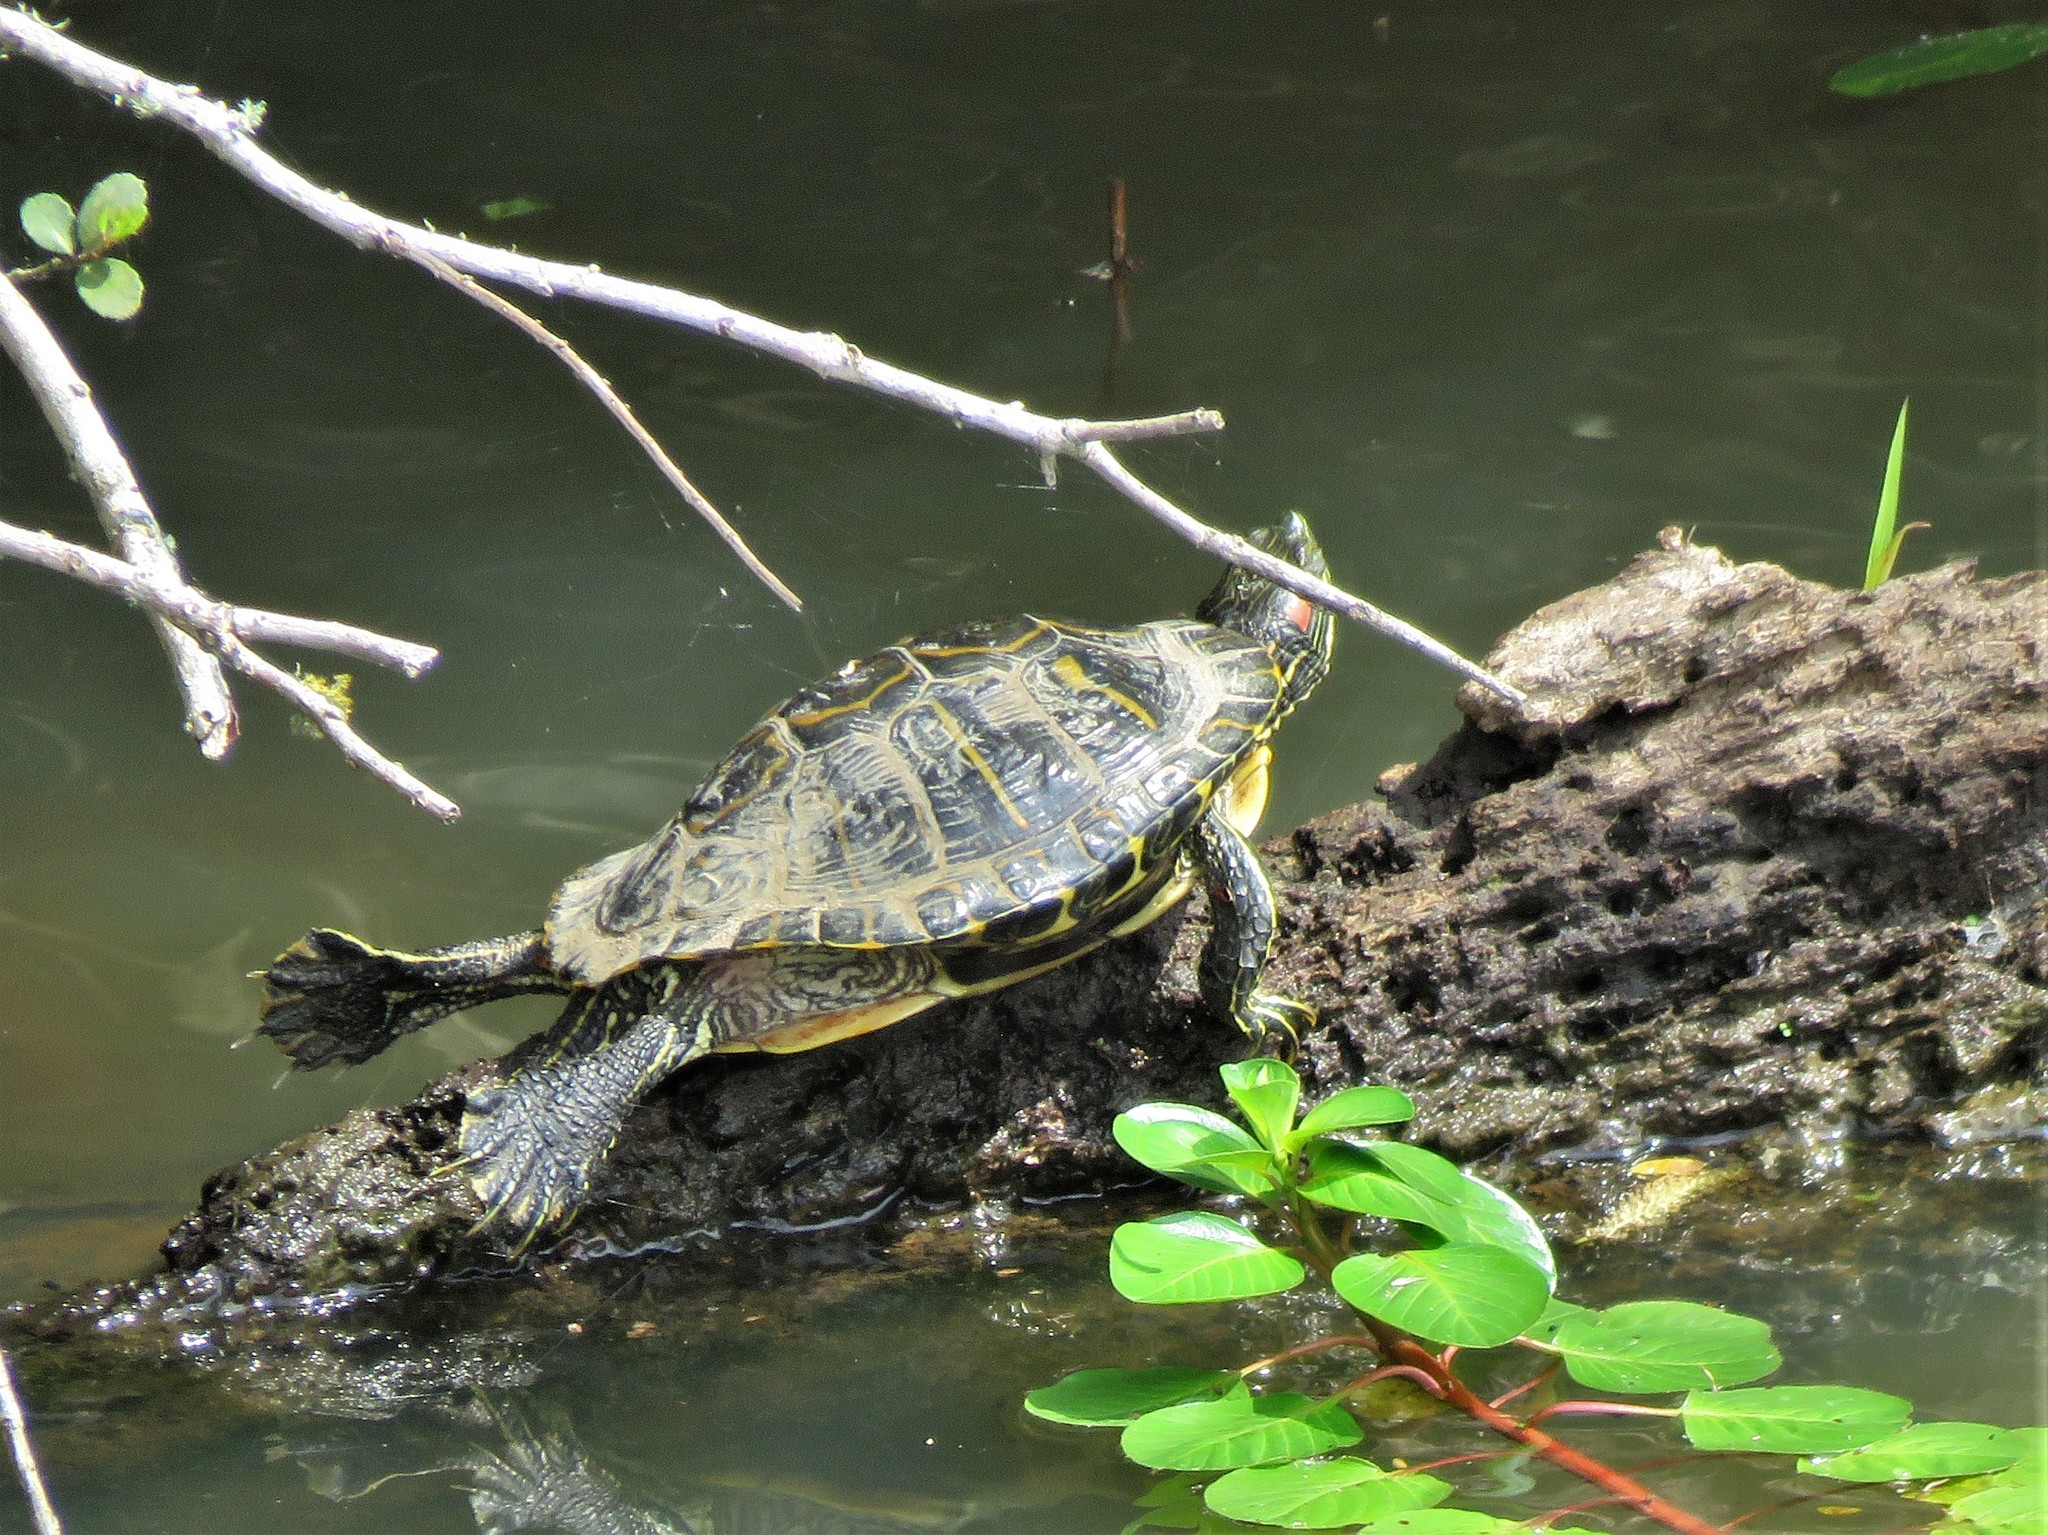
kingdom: Animalia
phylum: Chordata
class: Testudines
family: Emydidae
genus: Trachemys
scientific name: Trachemys scripta
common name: Slider
